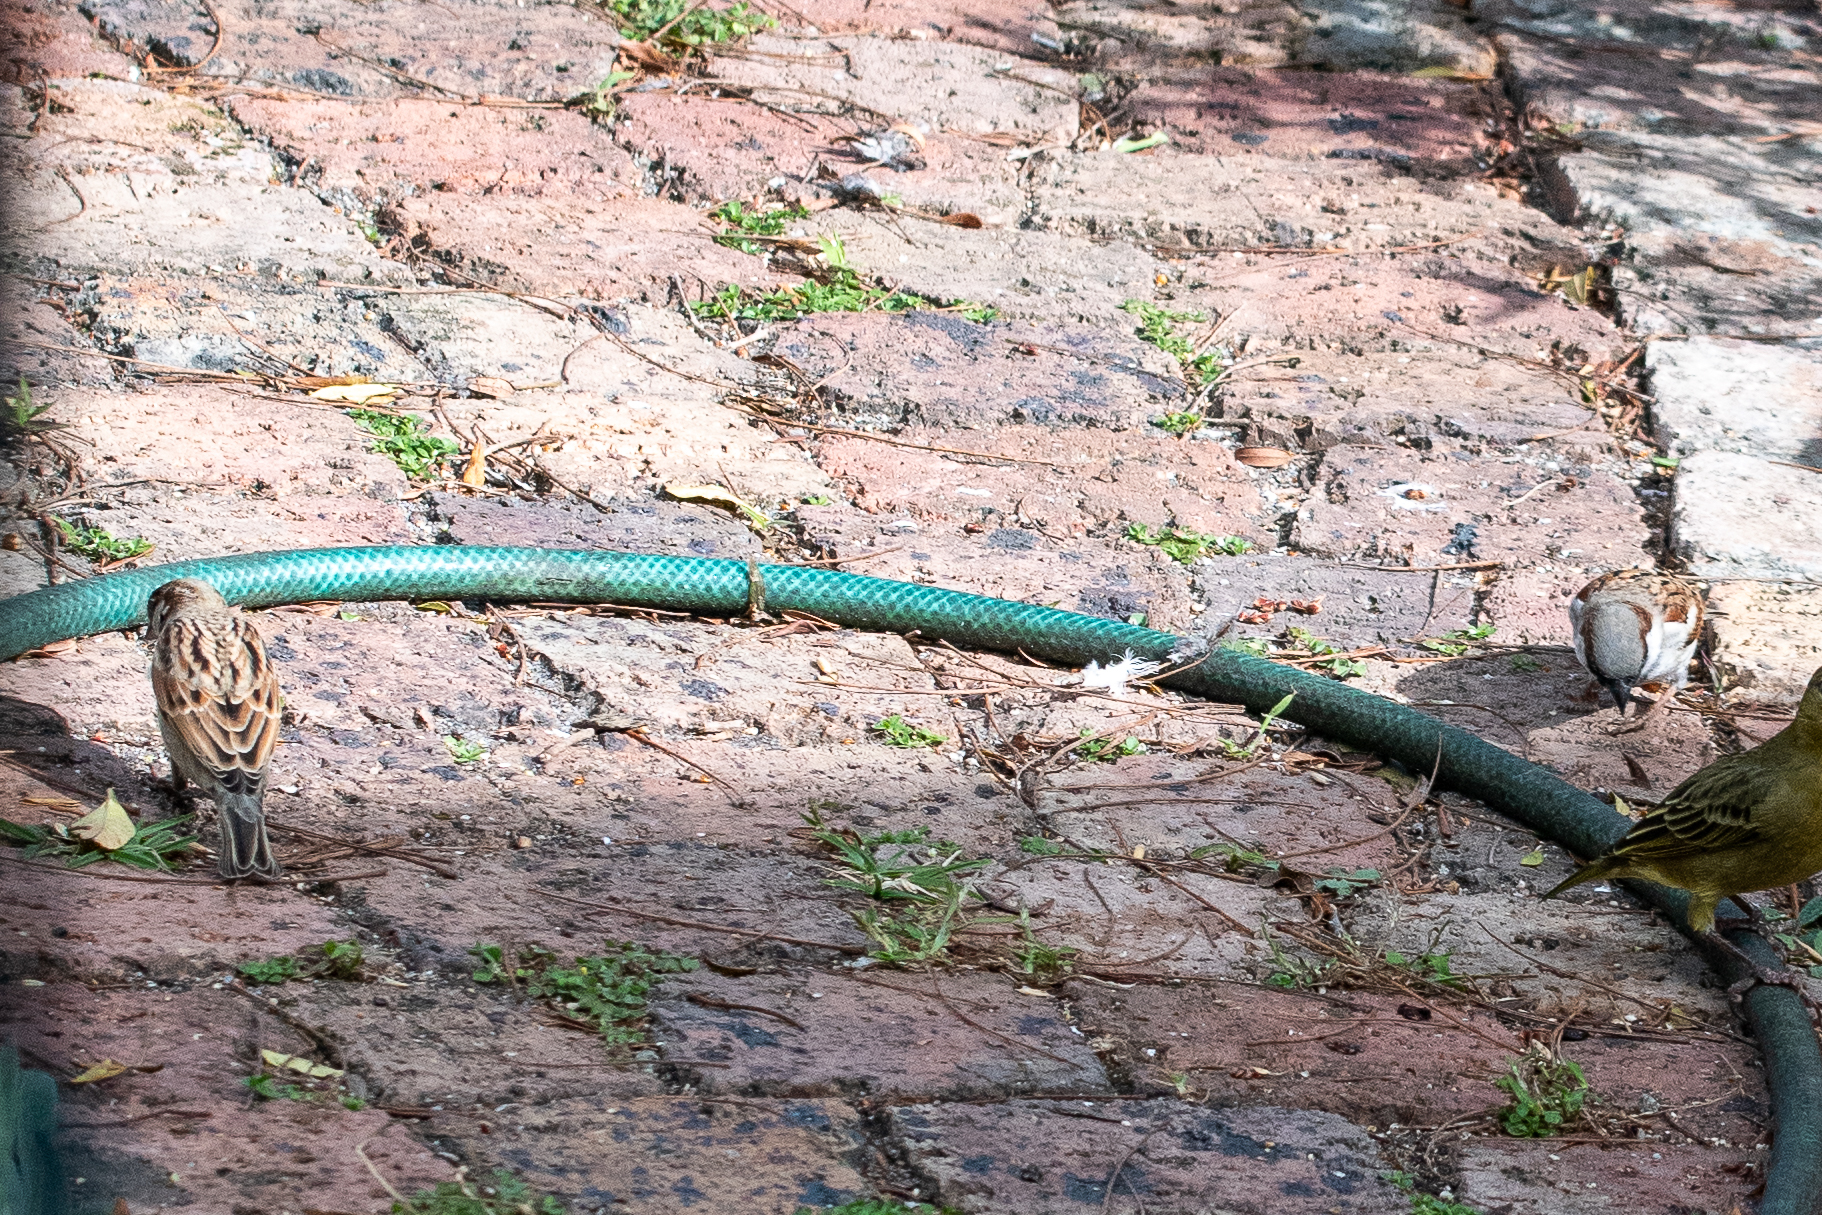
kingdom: Animalia
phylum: Chordata
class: Aves
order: Passeriformes
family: Passeridae
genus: Passer
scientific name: Passer domesticus
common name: House sparrow
